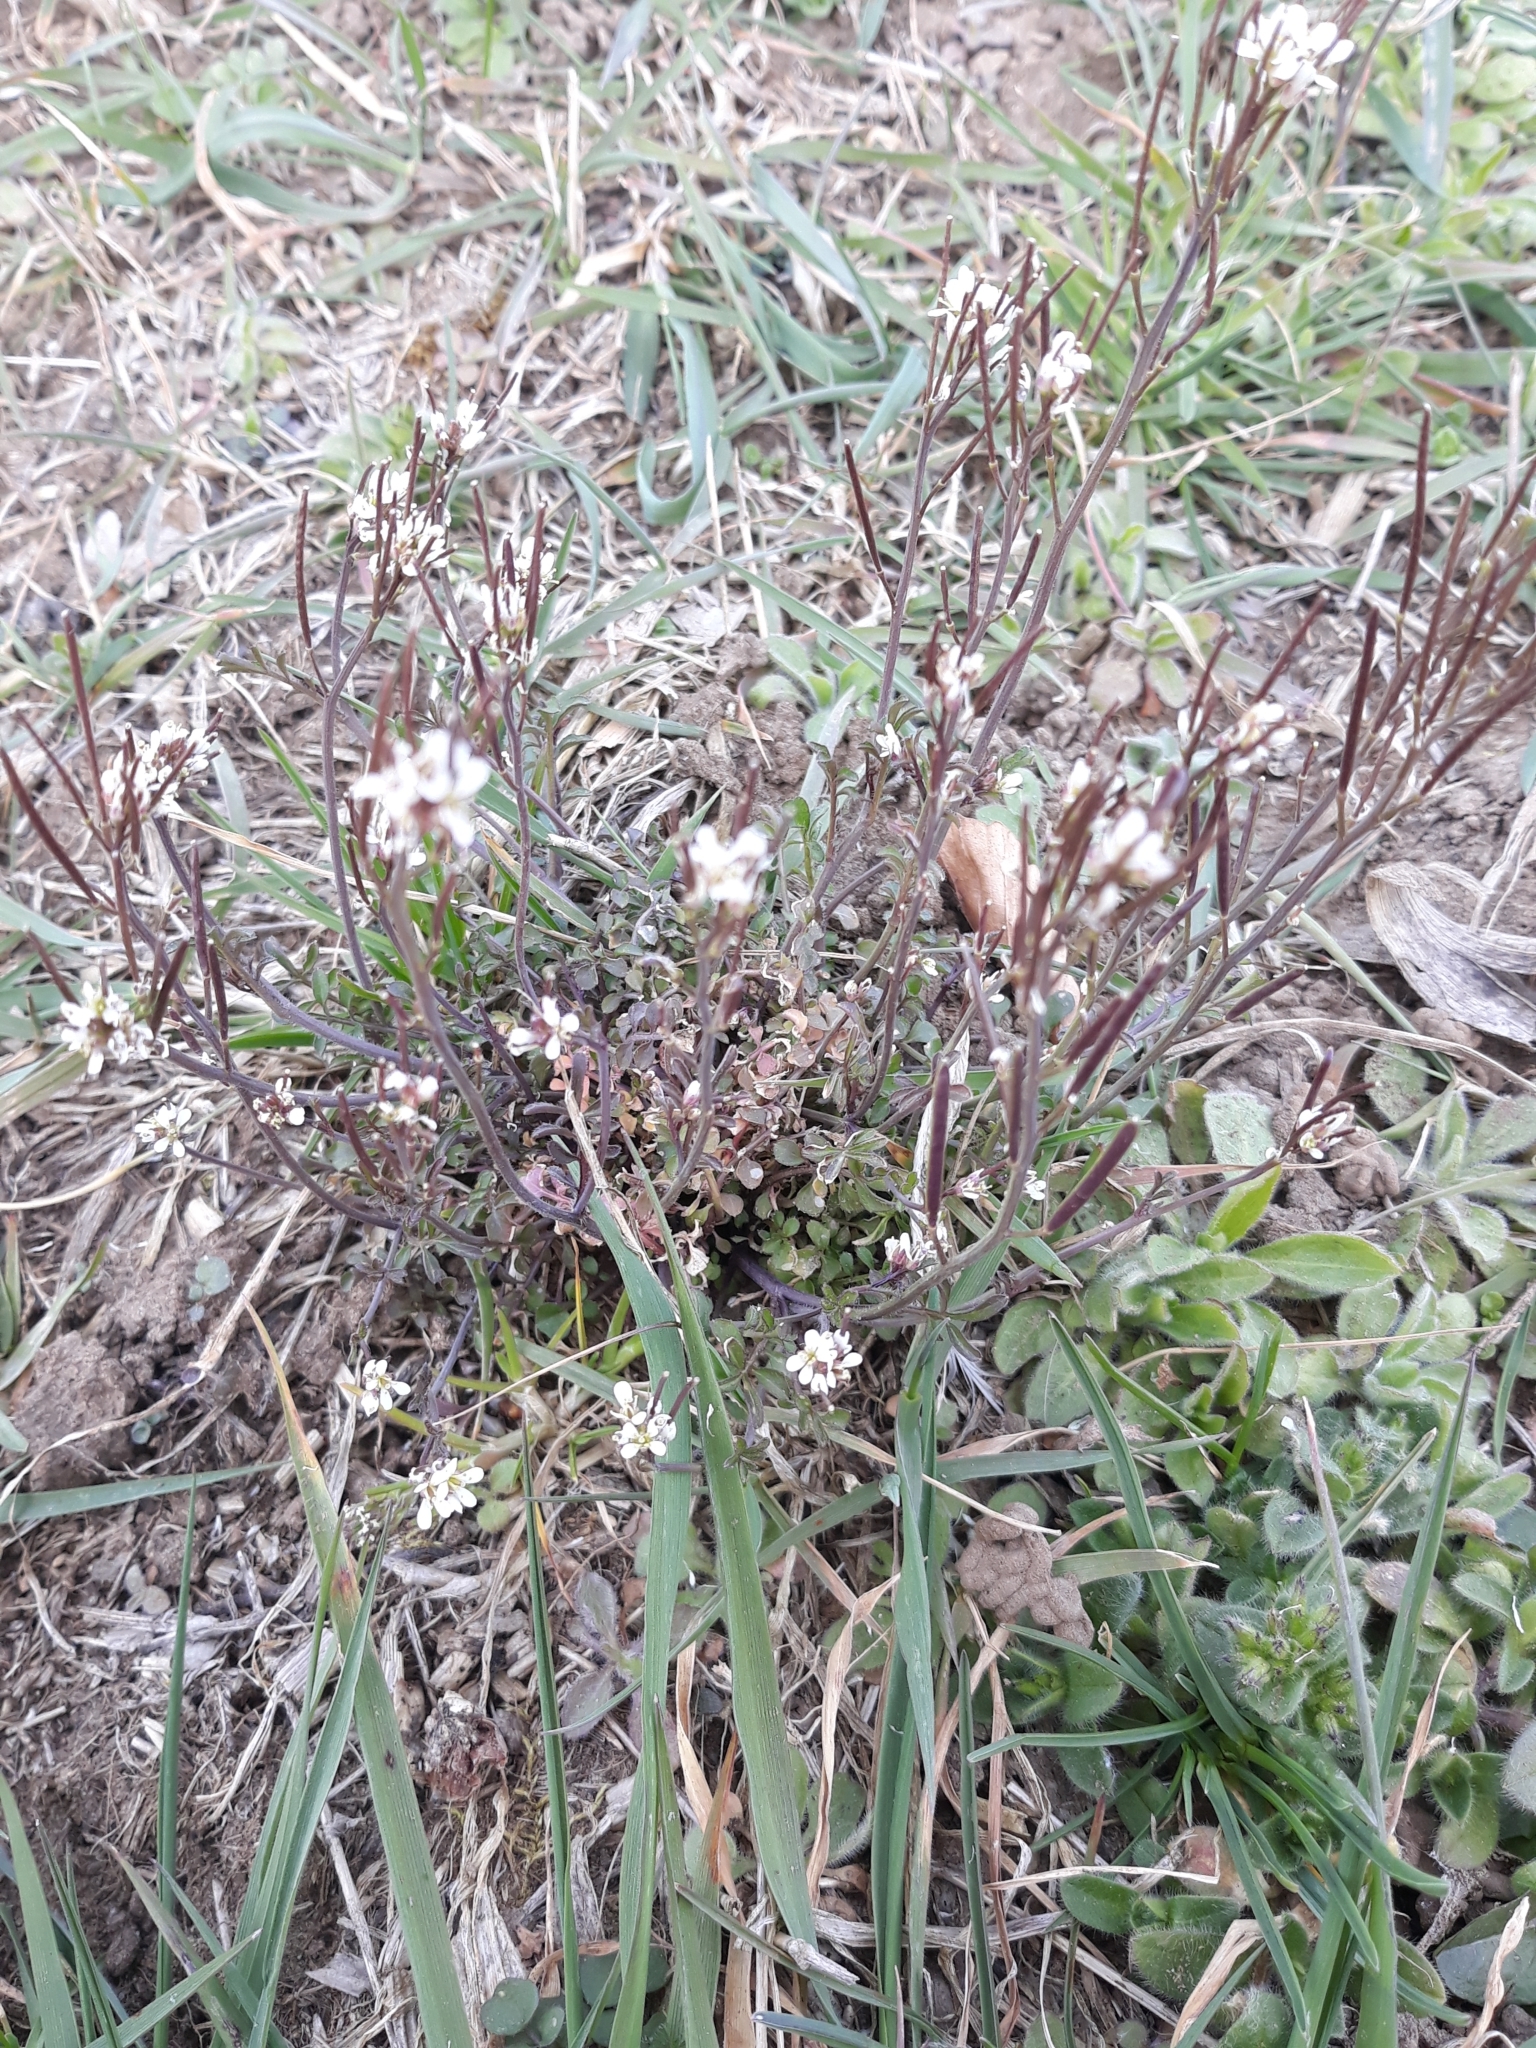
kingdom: Plantae
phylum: Tracheophyta
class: Magnoliopsida
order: Brassicales
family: Brassicaceae
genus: Cardamine
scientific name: Cardamine hirsuta
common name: Hairy bittercress
